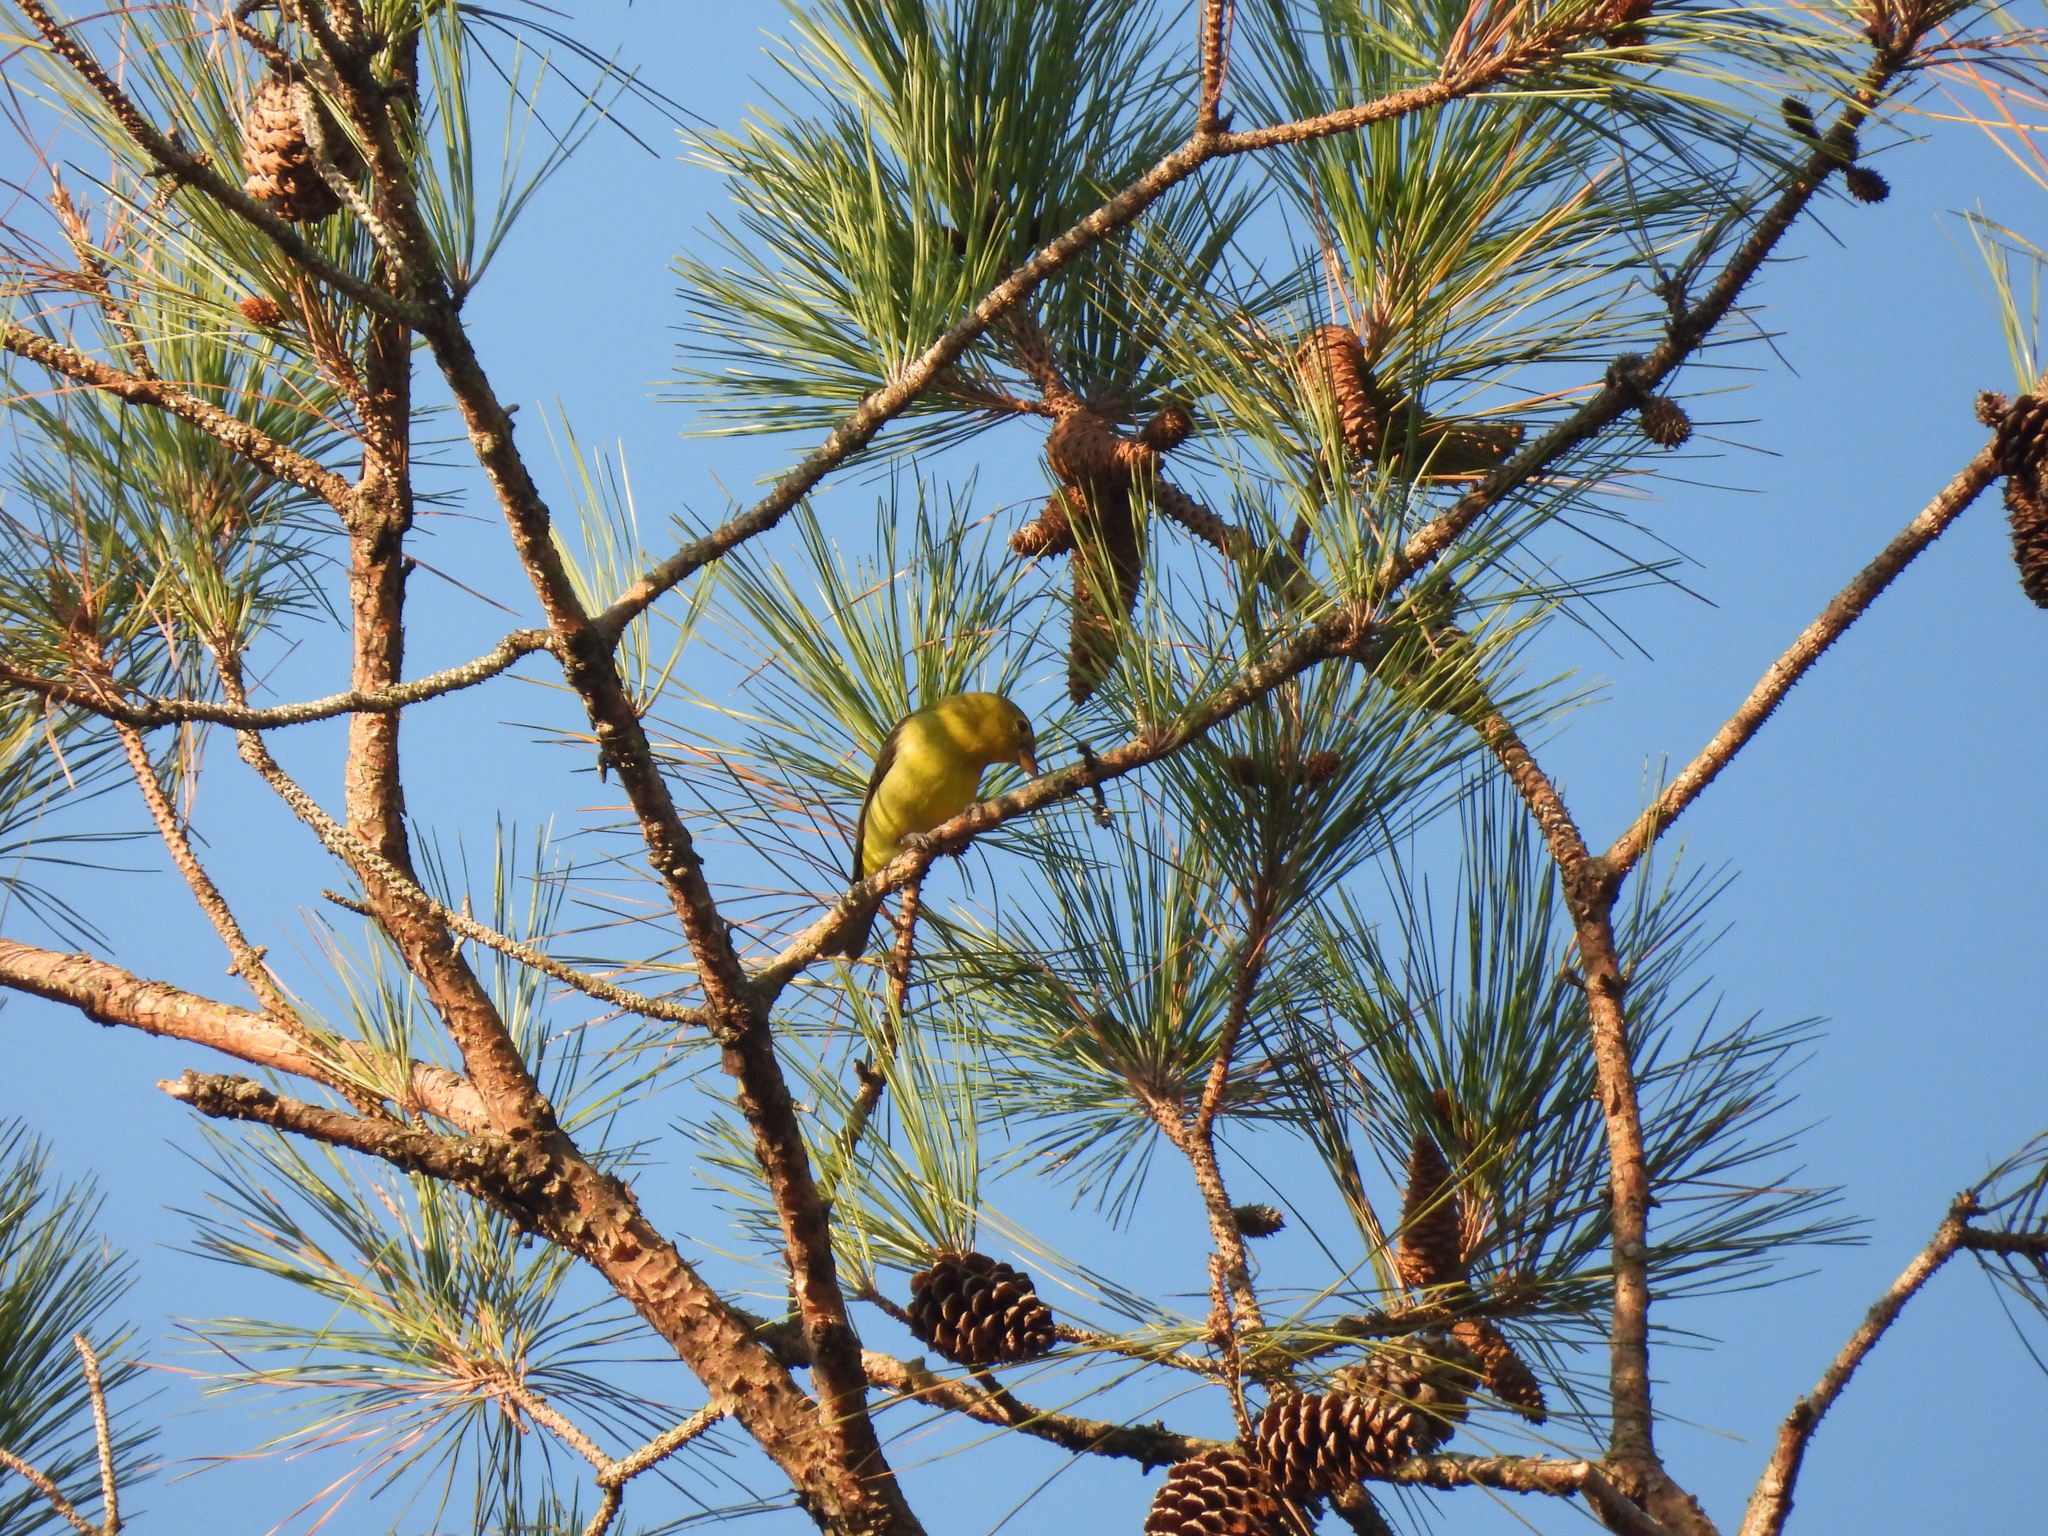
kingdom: Animalia
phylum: Chordata
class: Aves
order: Passeriformes
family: Cardinalidae
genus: Piranga
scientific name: Piranga olivacea
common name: Scarlet tanager
